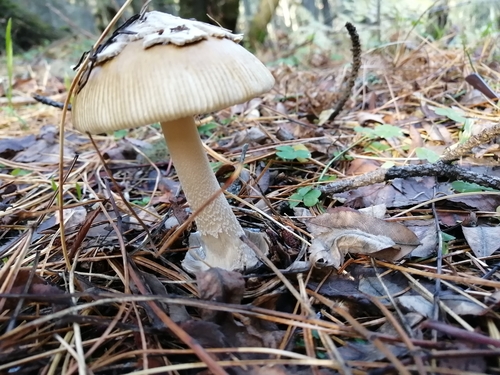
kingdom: Fungi
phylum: Basidiomycota
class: Agaricomycetes
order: Agaricales
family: Amanitaceae
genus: Amanita
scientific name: Amanita
